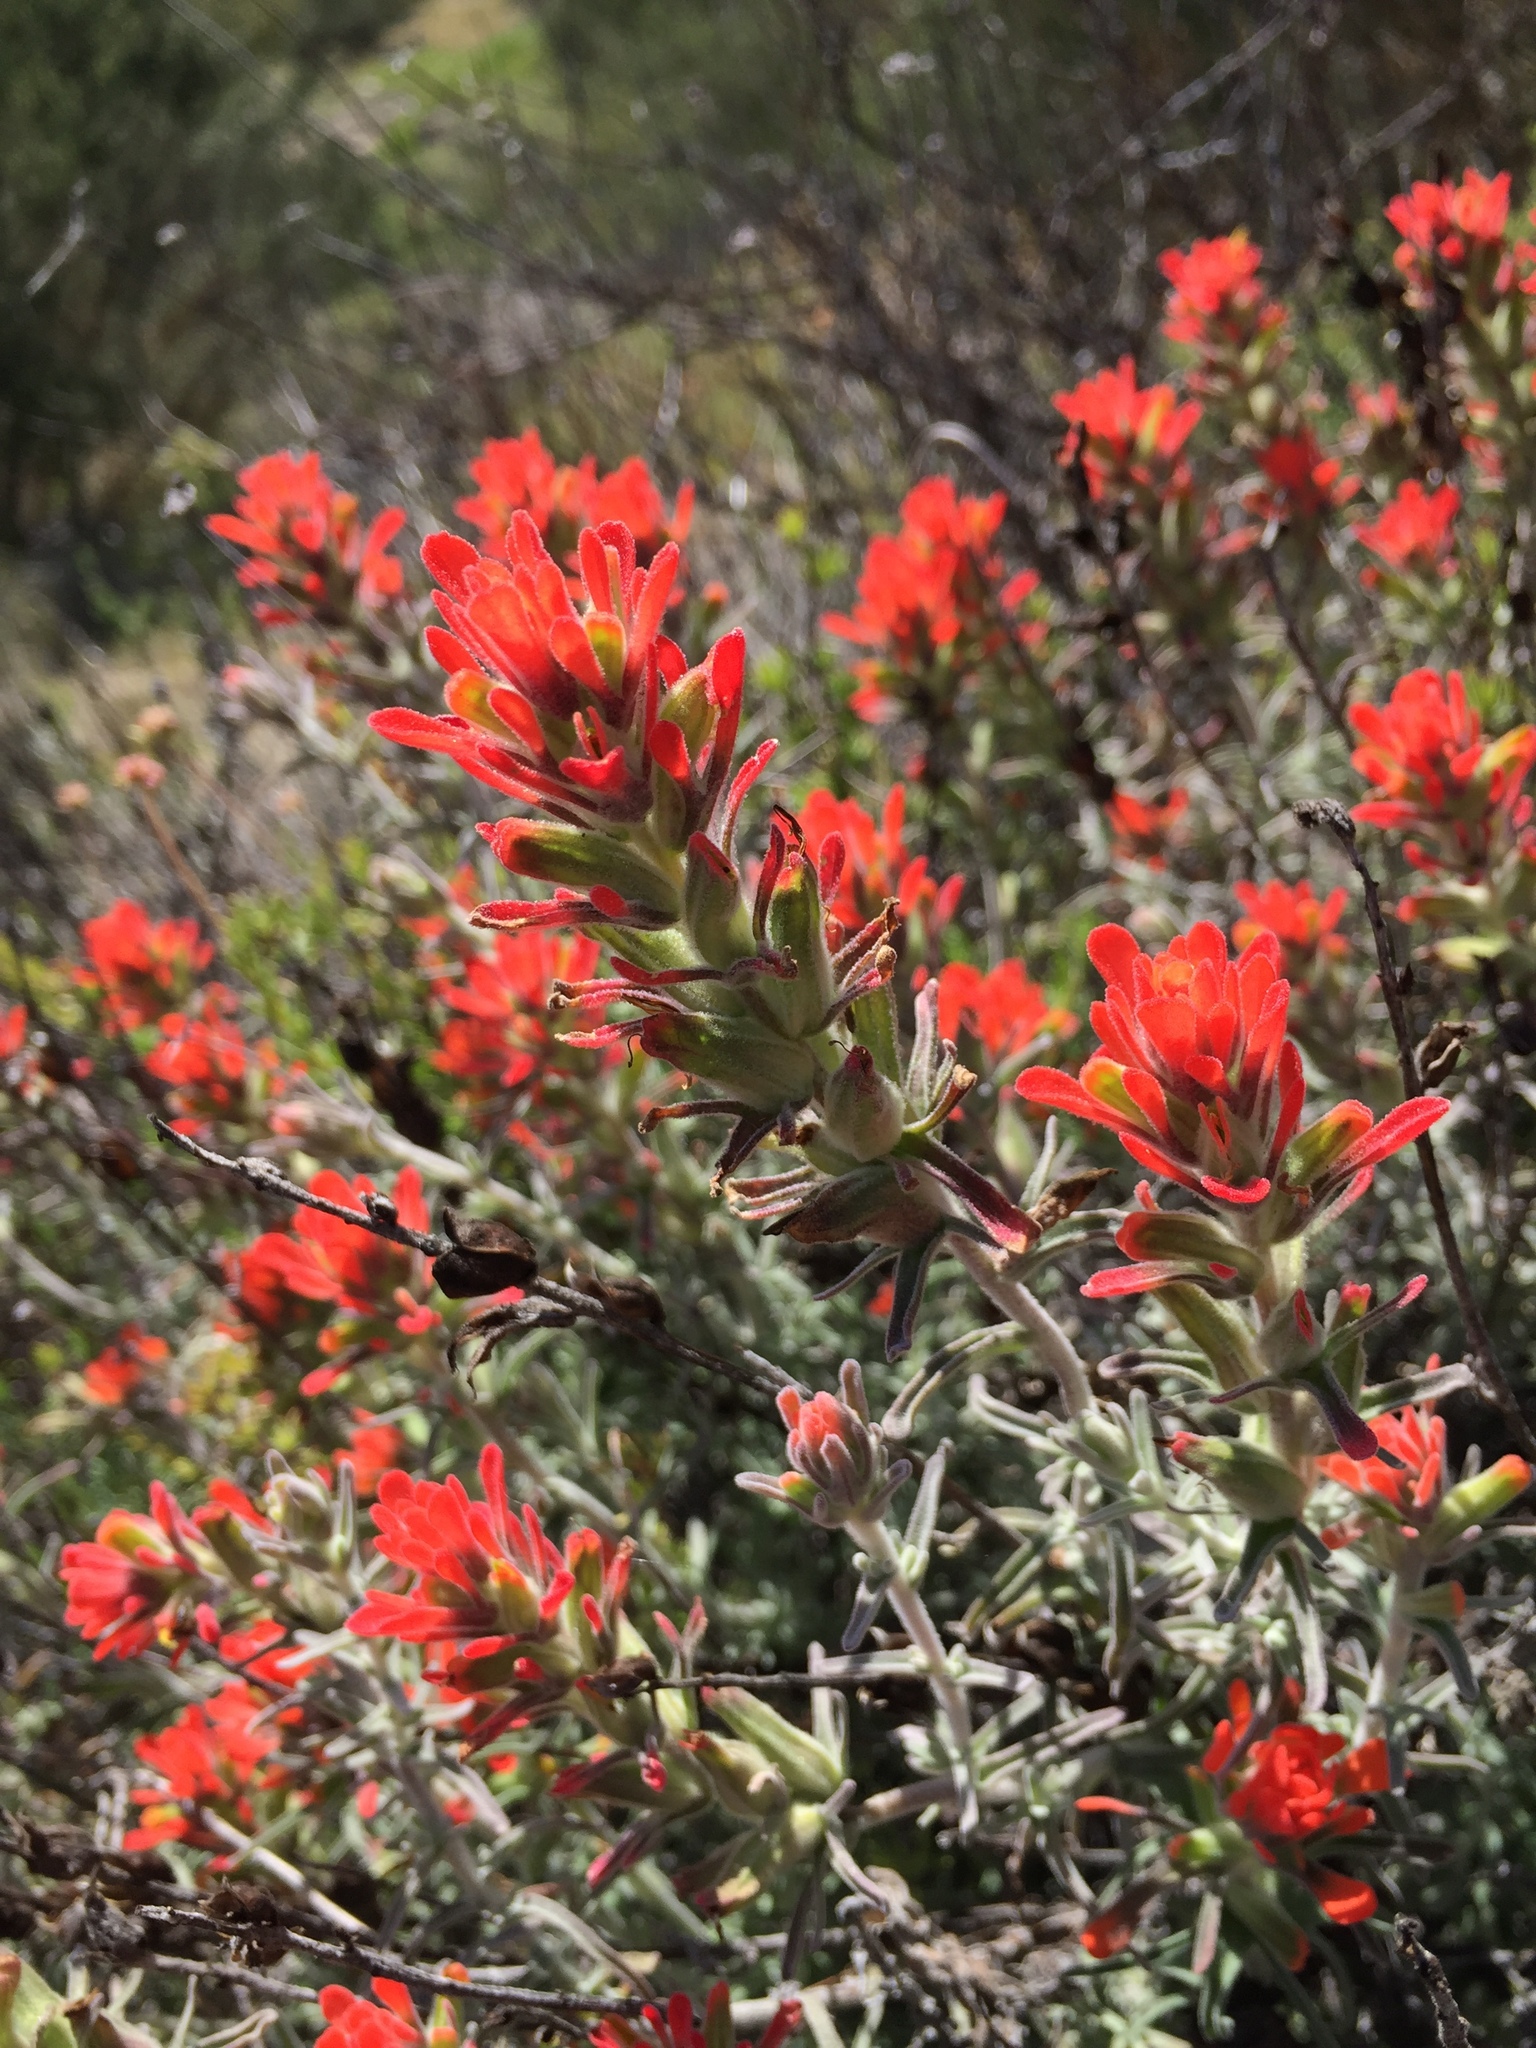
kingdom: Plantae
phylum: Tracheophyta
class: Magnoliopsida
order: Lamiales
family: Orobanchaceae
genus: Castilleja
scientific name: Castilleja foliolosa
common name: Woolly indian paintbrush
